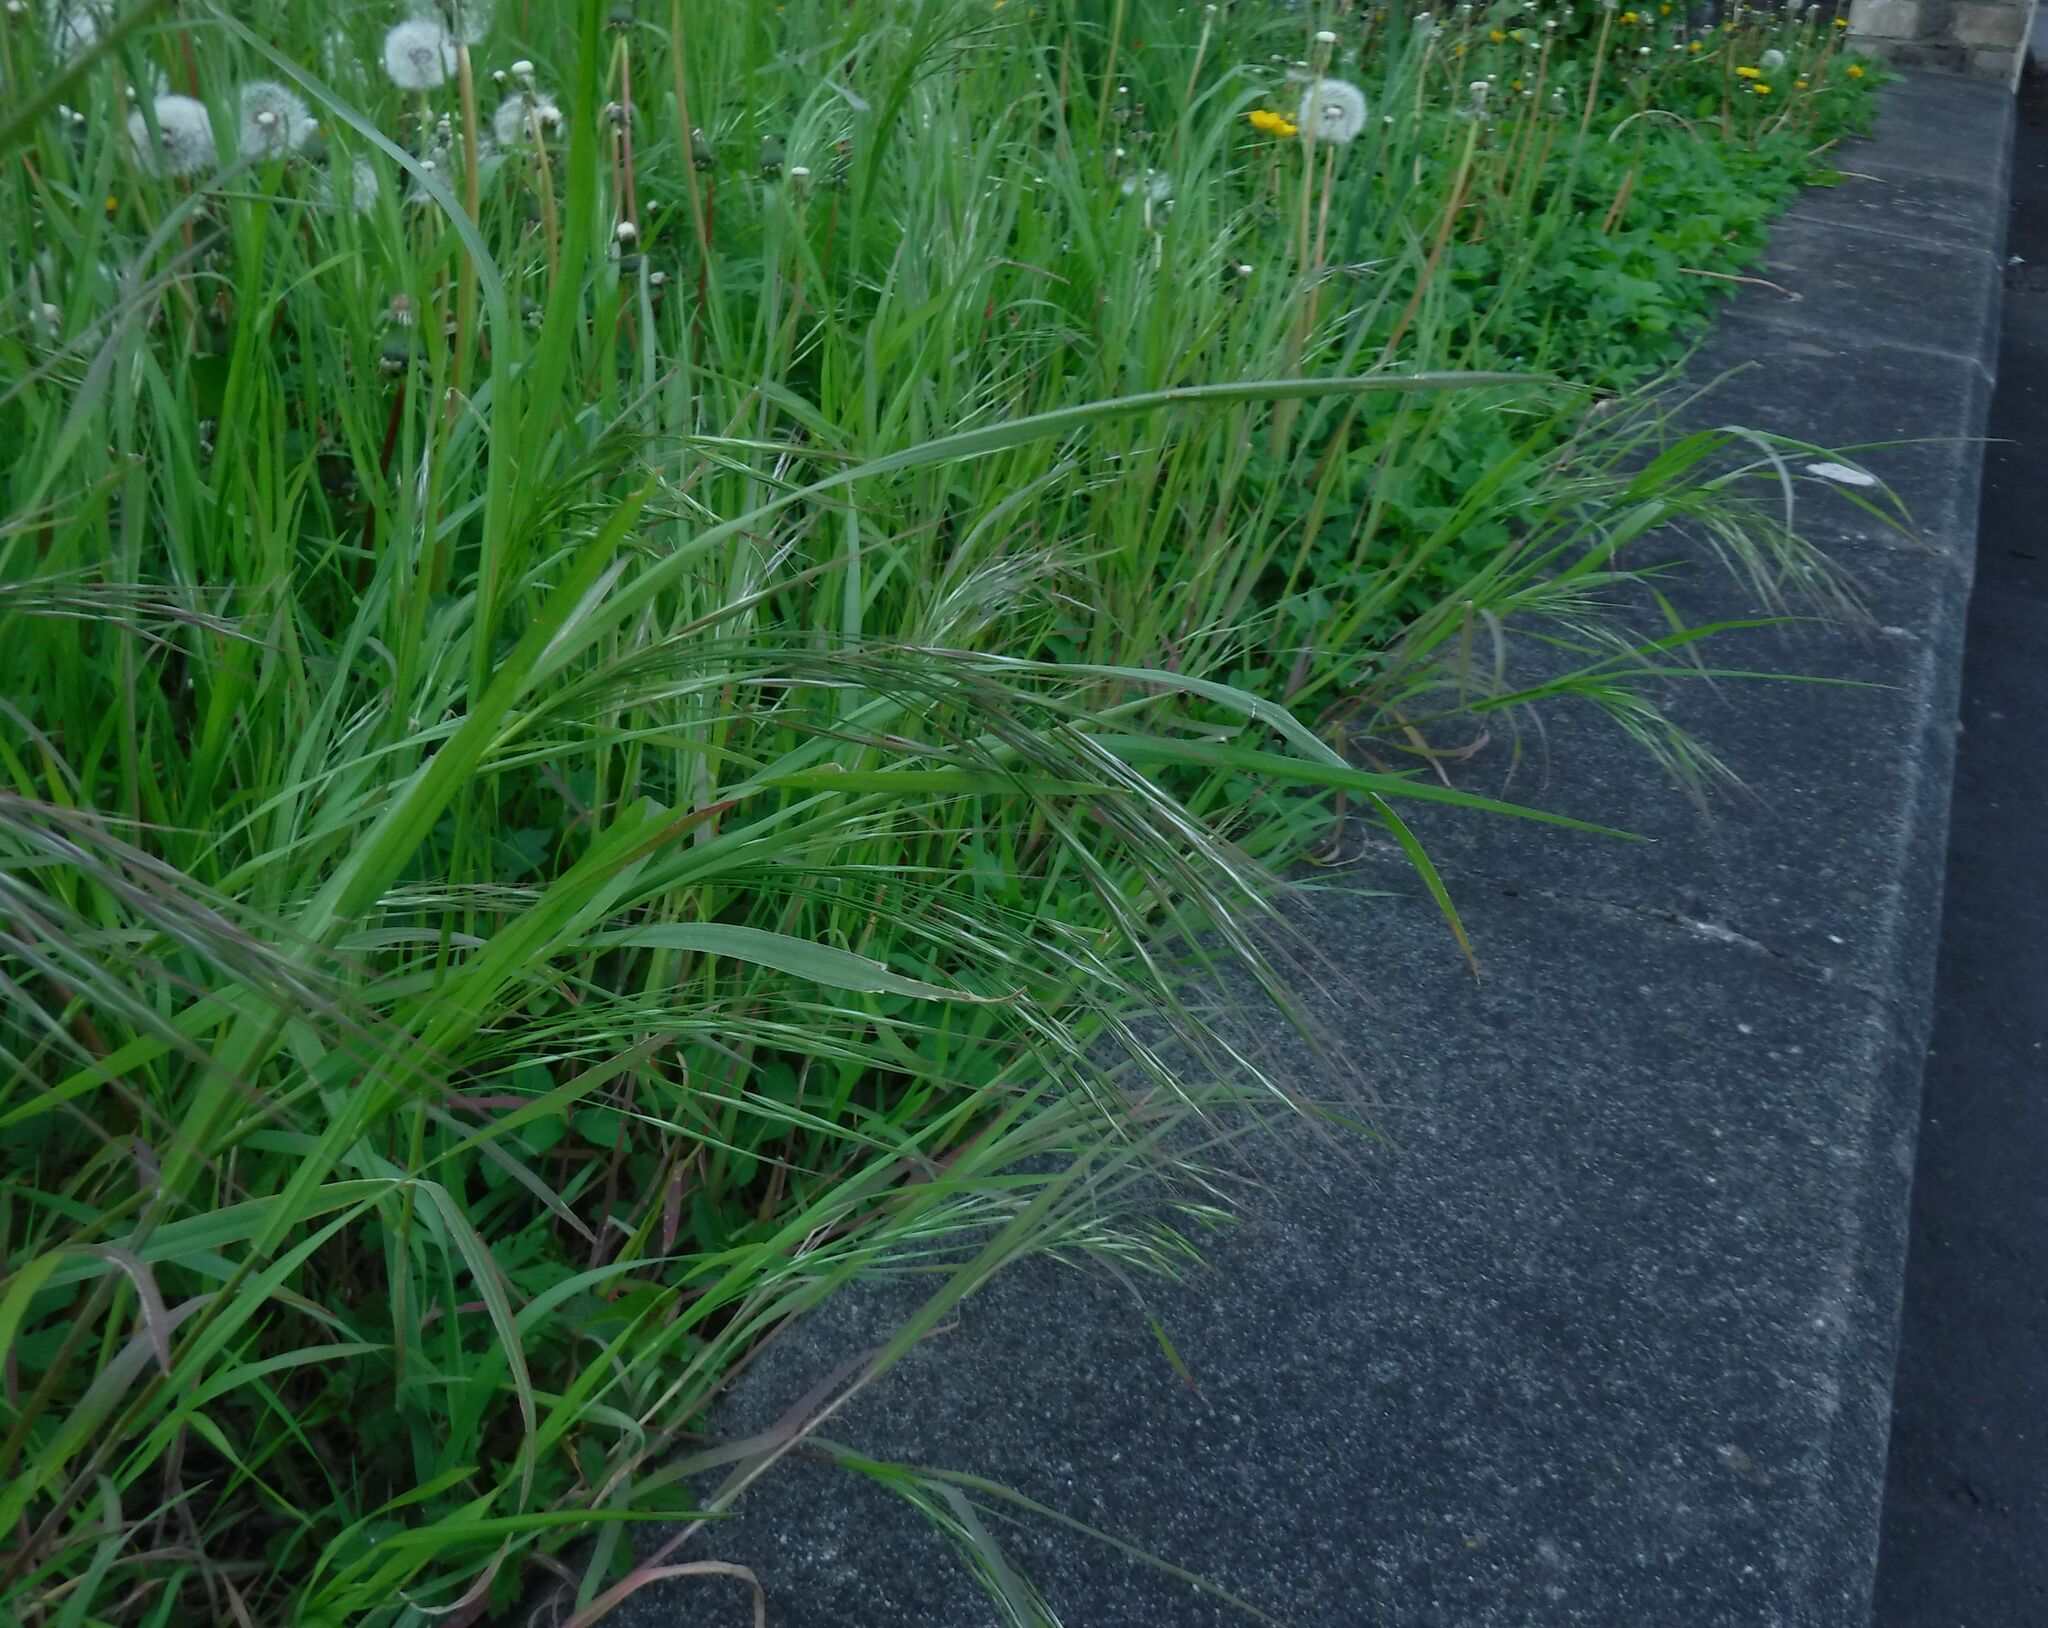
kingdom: Plantae
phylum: Tracheophyta
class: Liliopsida
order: Poales
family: Poaceae
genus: Bromus
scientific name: Bromus sterilis
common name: Poverty brome
